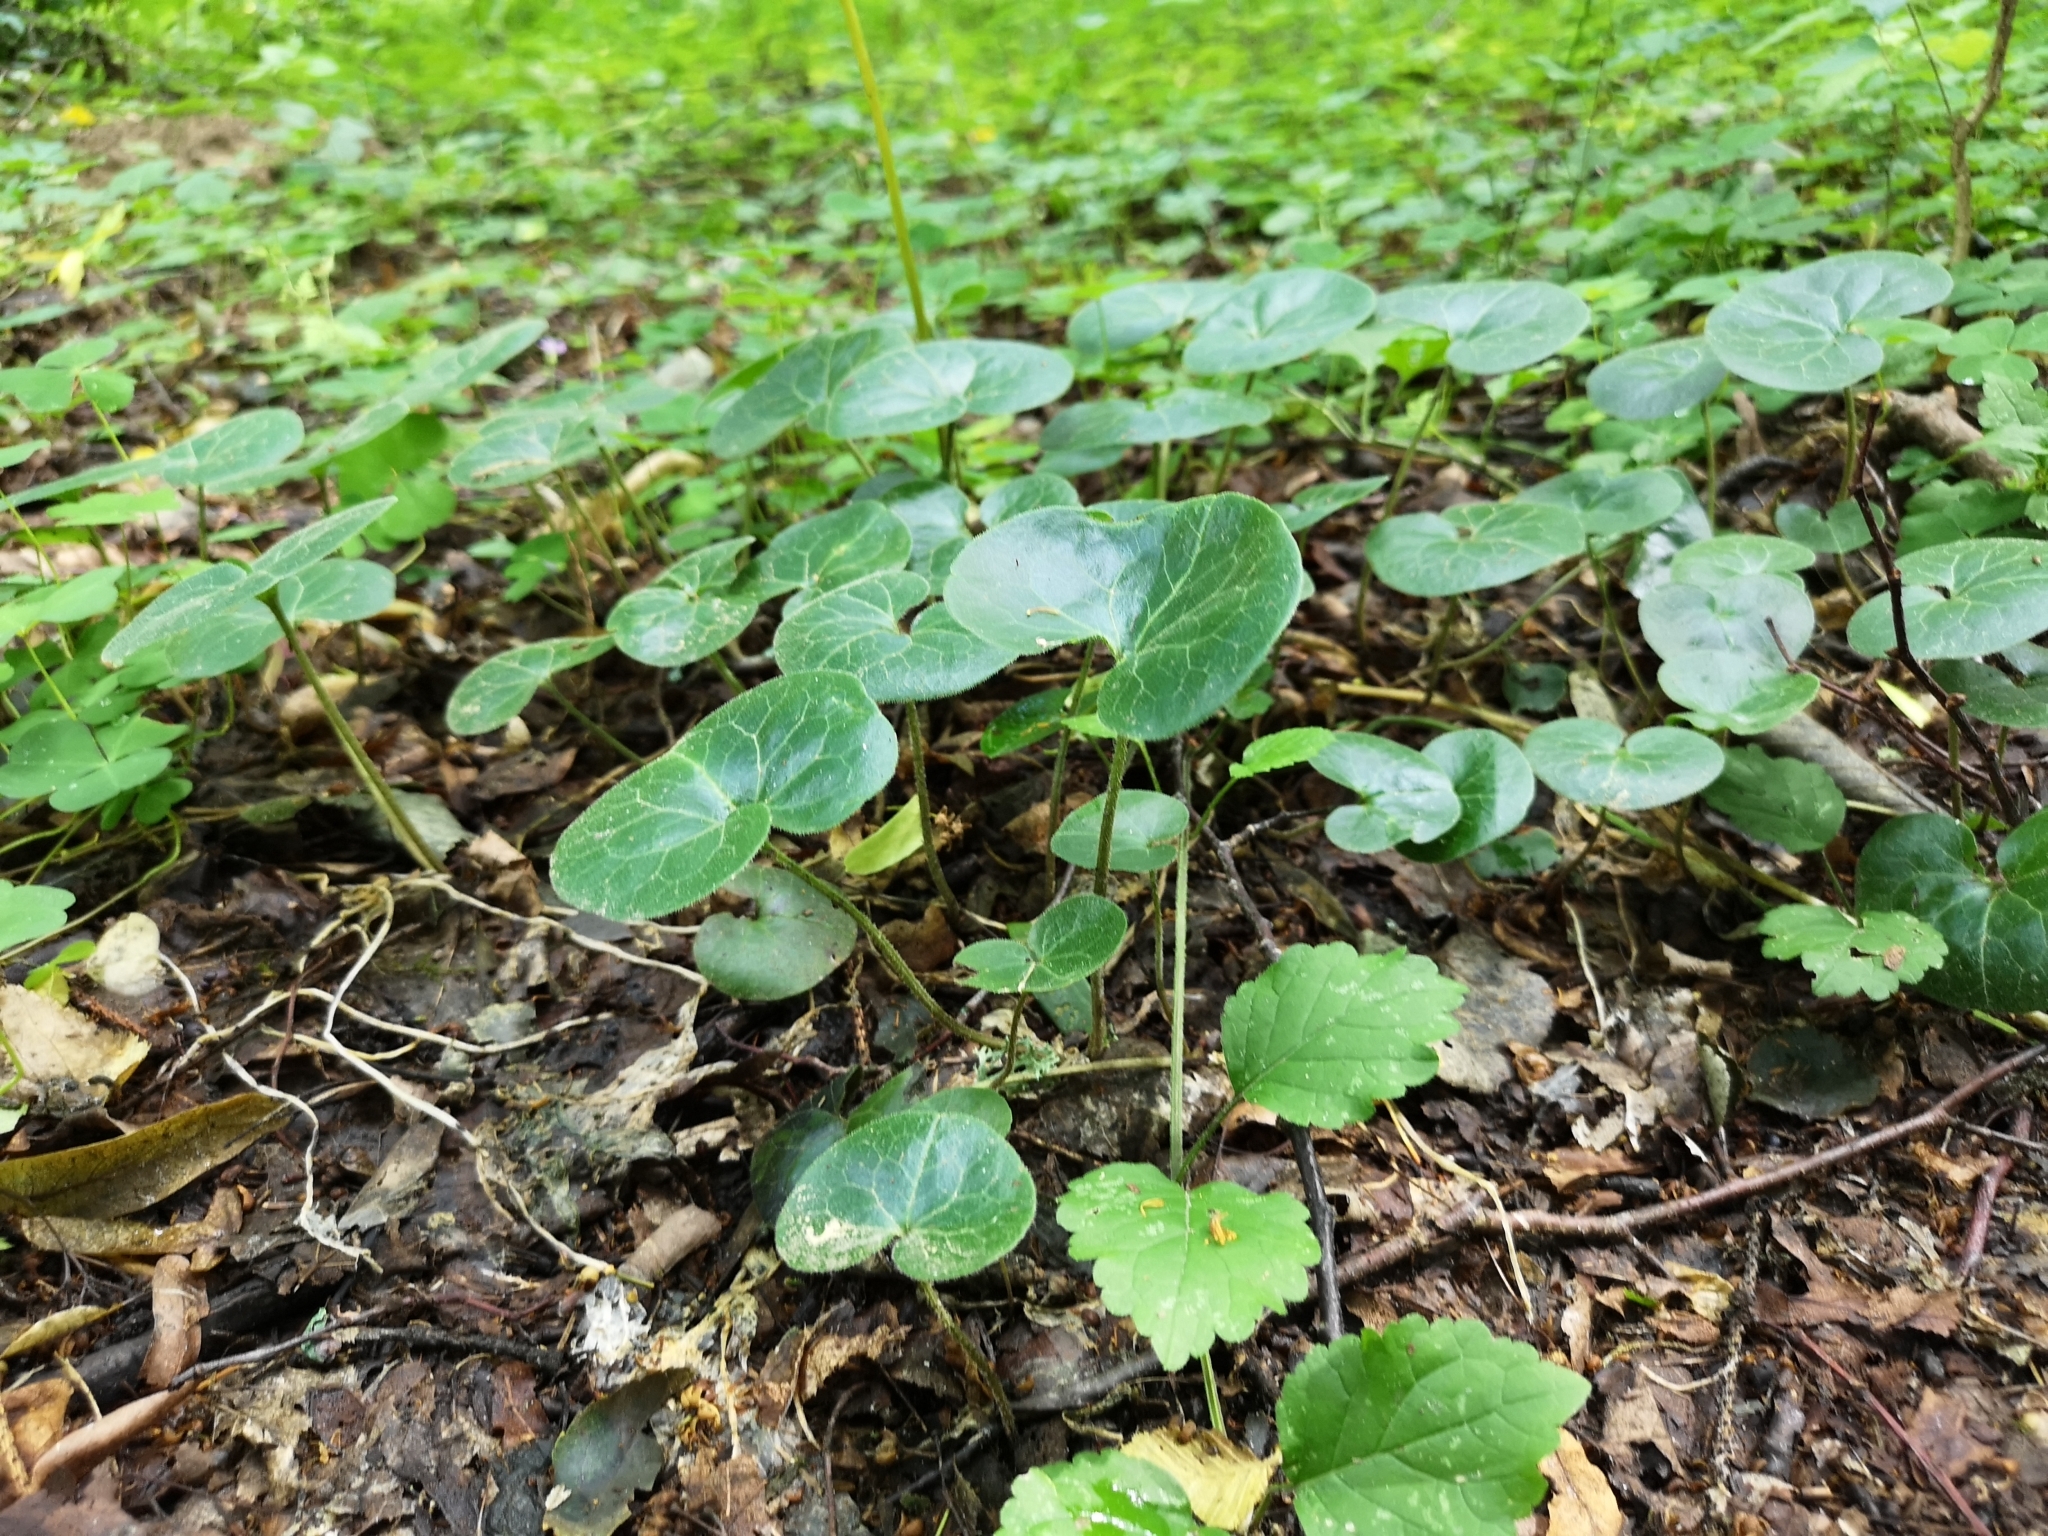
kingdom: Plantae
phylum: Tracheophyta
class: Magnoliopsida
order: Piperales
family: Aristolochiaceae
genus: Asarum
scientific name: Asarum europaeum
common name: Asarabacca
